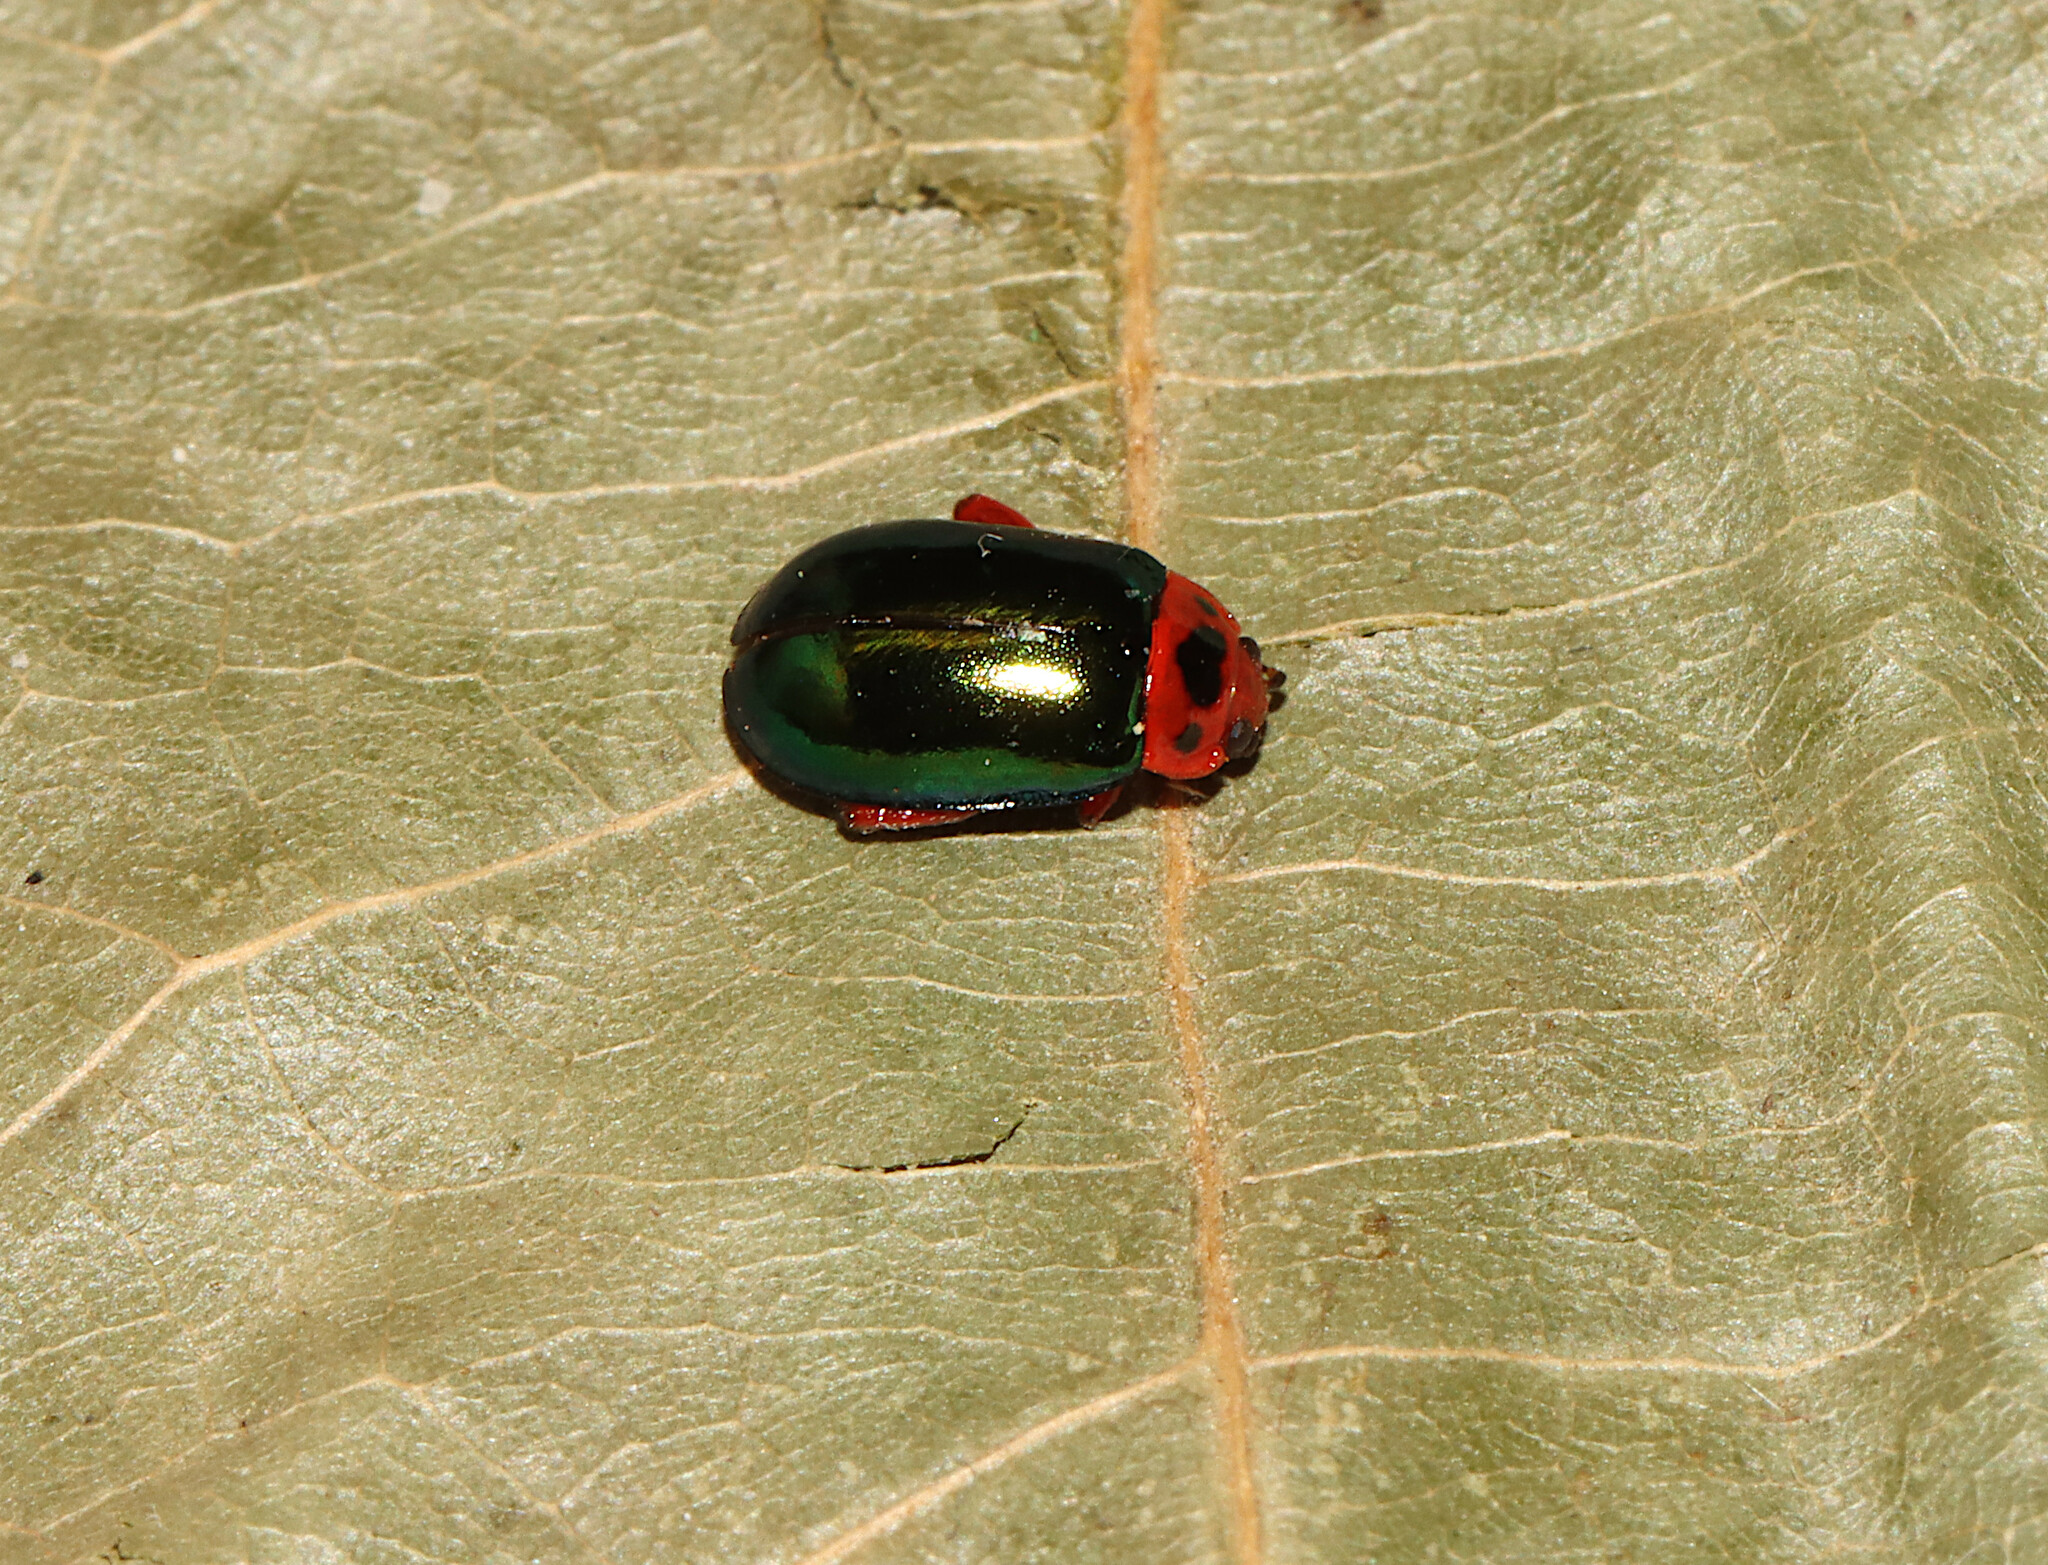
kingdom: Animalia
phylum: Arthropoda
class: Insecta
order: Coleoptera
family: Chrysomelidae
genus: Kuschelina
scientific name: Kuschelina gibbitarsa
